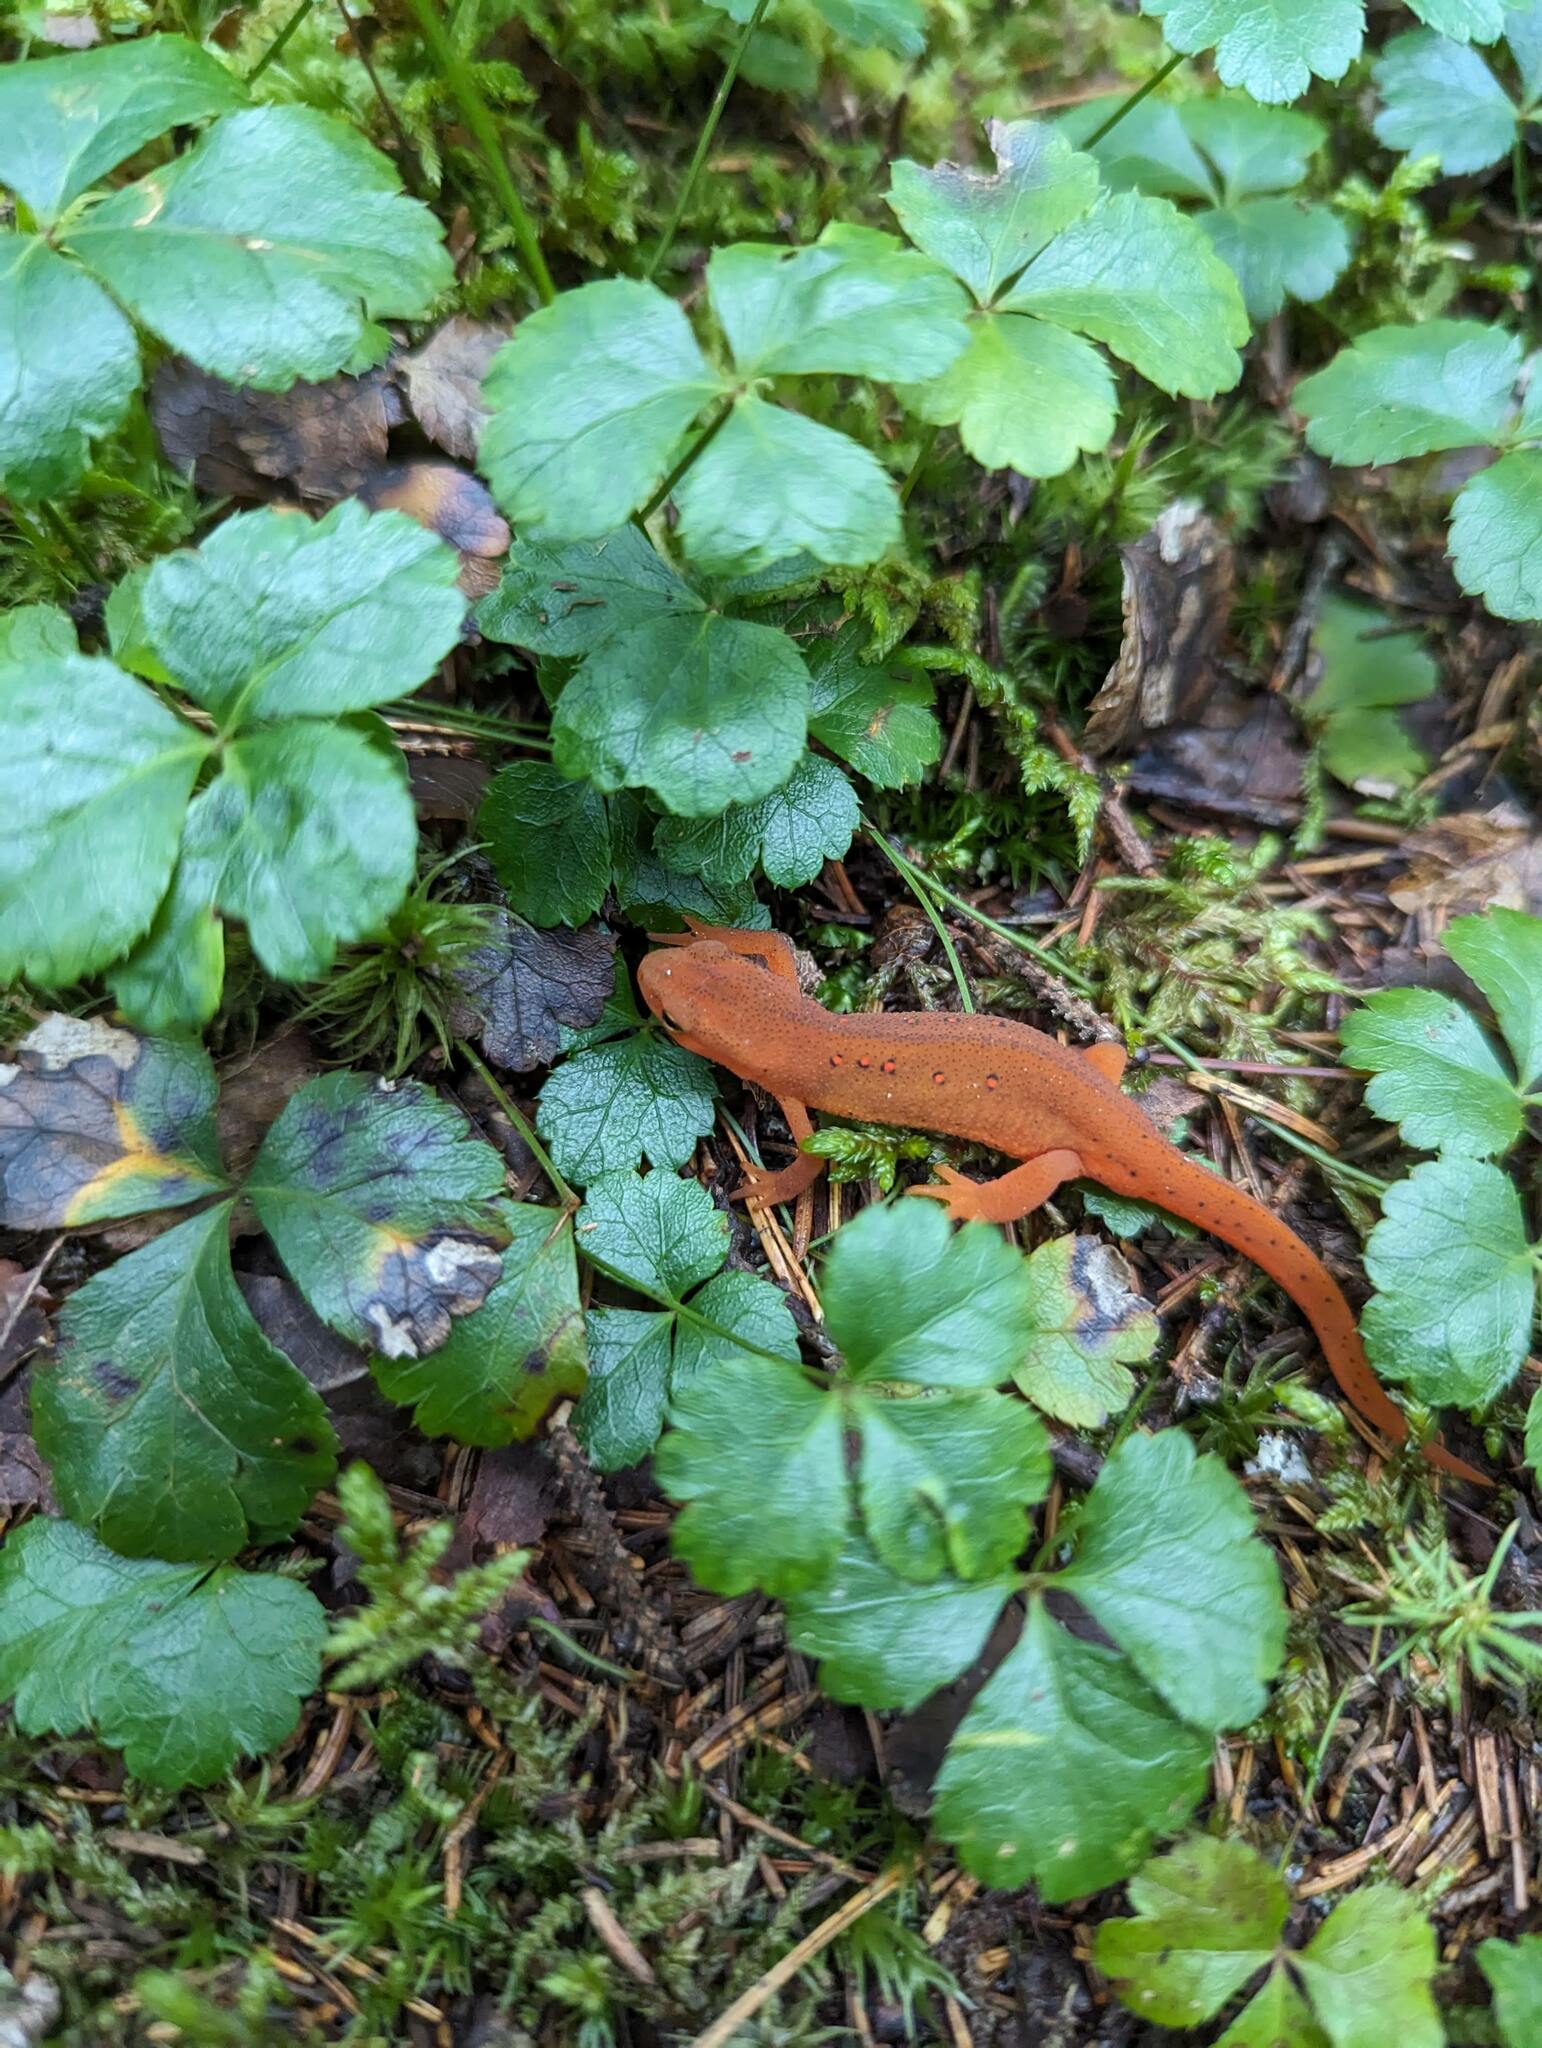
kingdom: Animalia
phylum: Chordata
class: Amphibia
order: Caudata
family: Salamandridae
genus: Notophthalmus
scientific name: Notophthalmus viridescens
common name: Eastern newt
